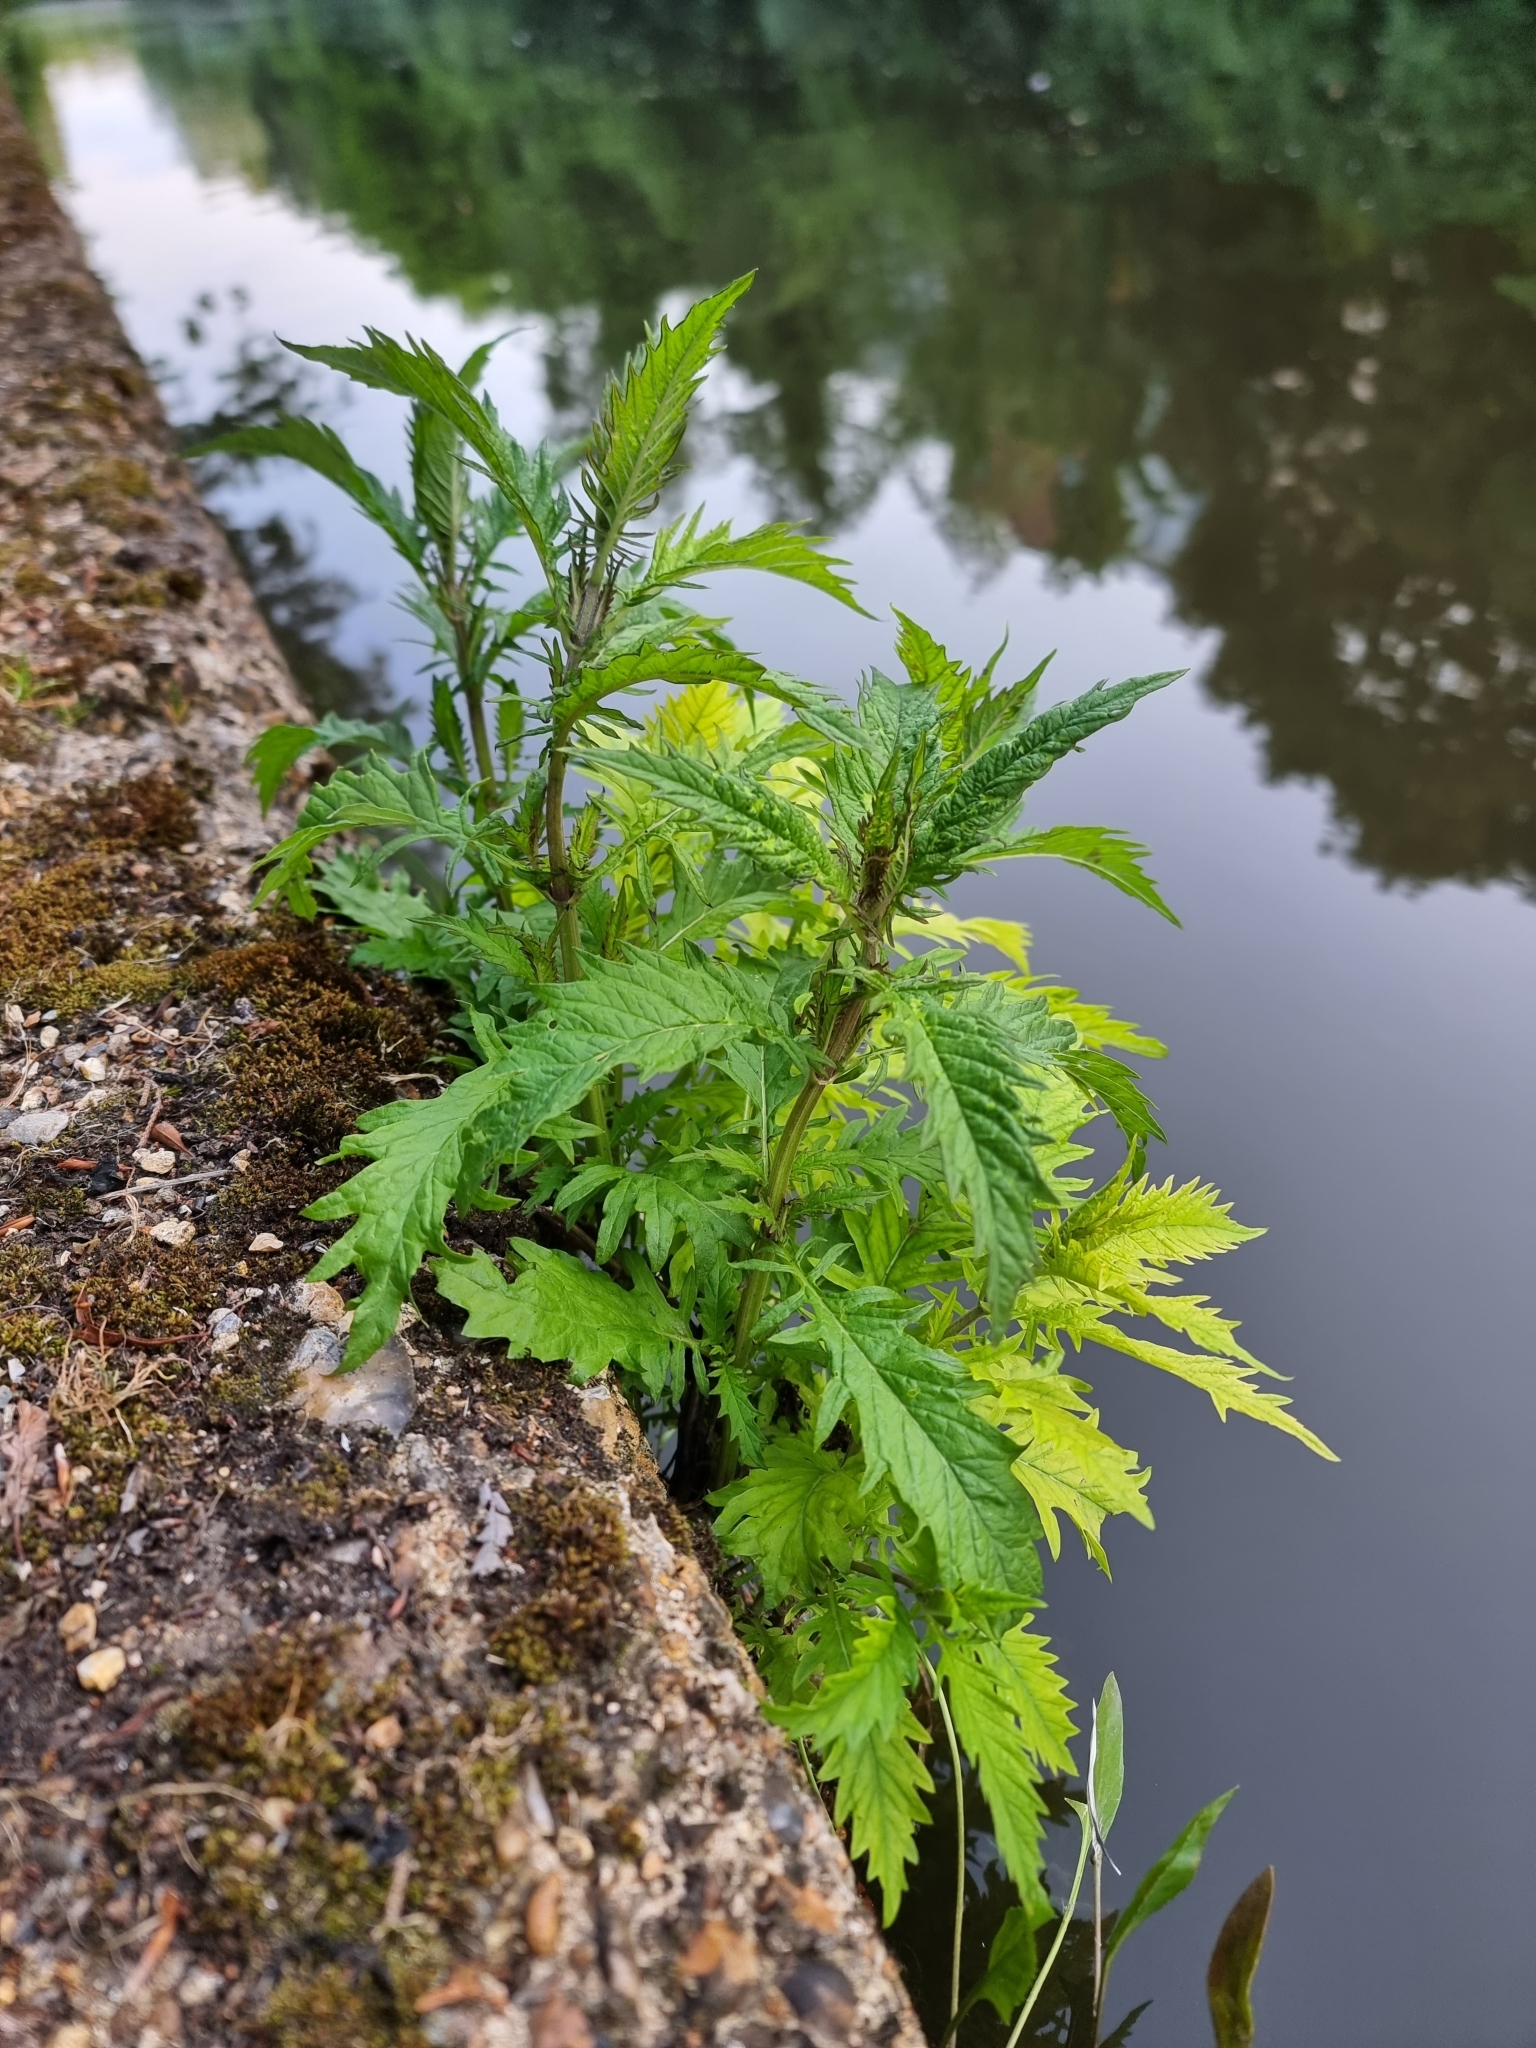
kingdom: Plantae
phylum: Tracheophyta
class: Magnoliopsida
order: Lamiales
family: Lamiaceae
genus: Lycopus
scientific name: Lycopus europaeus
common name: European bugleweed
